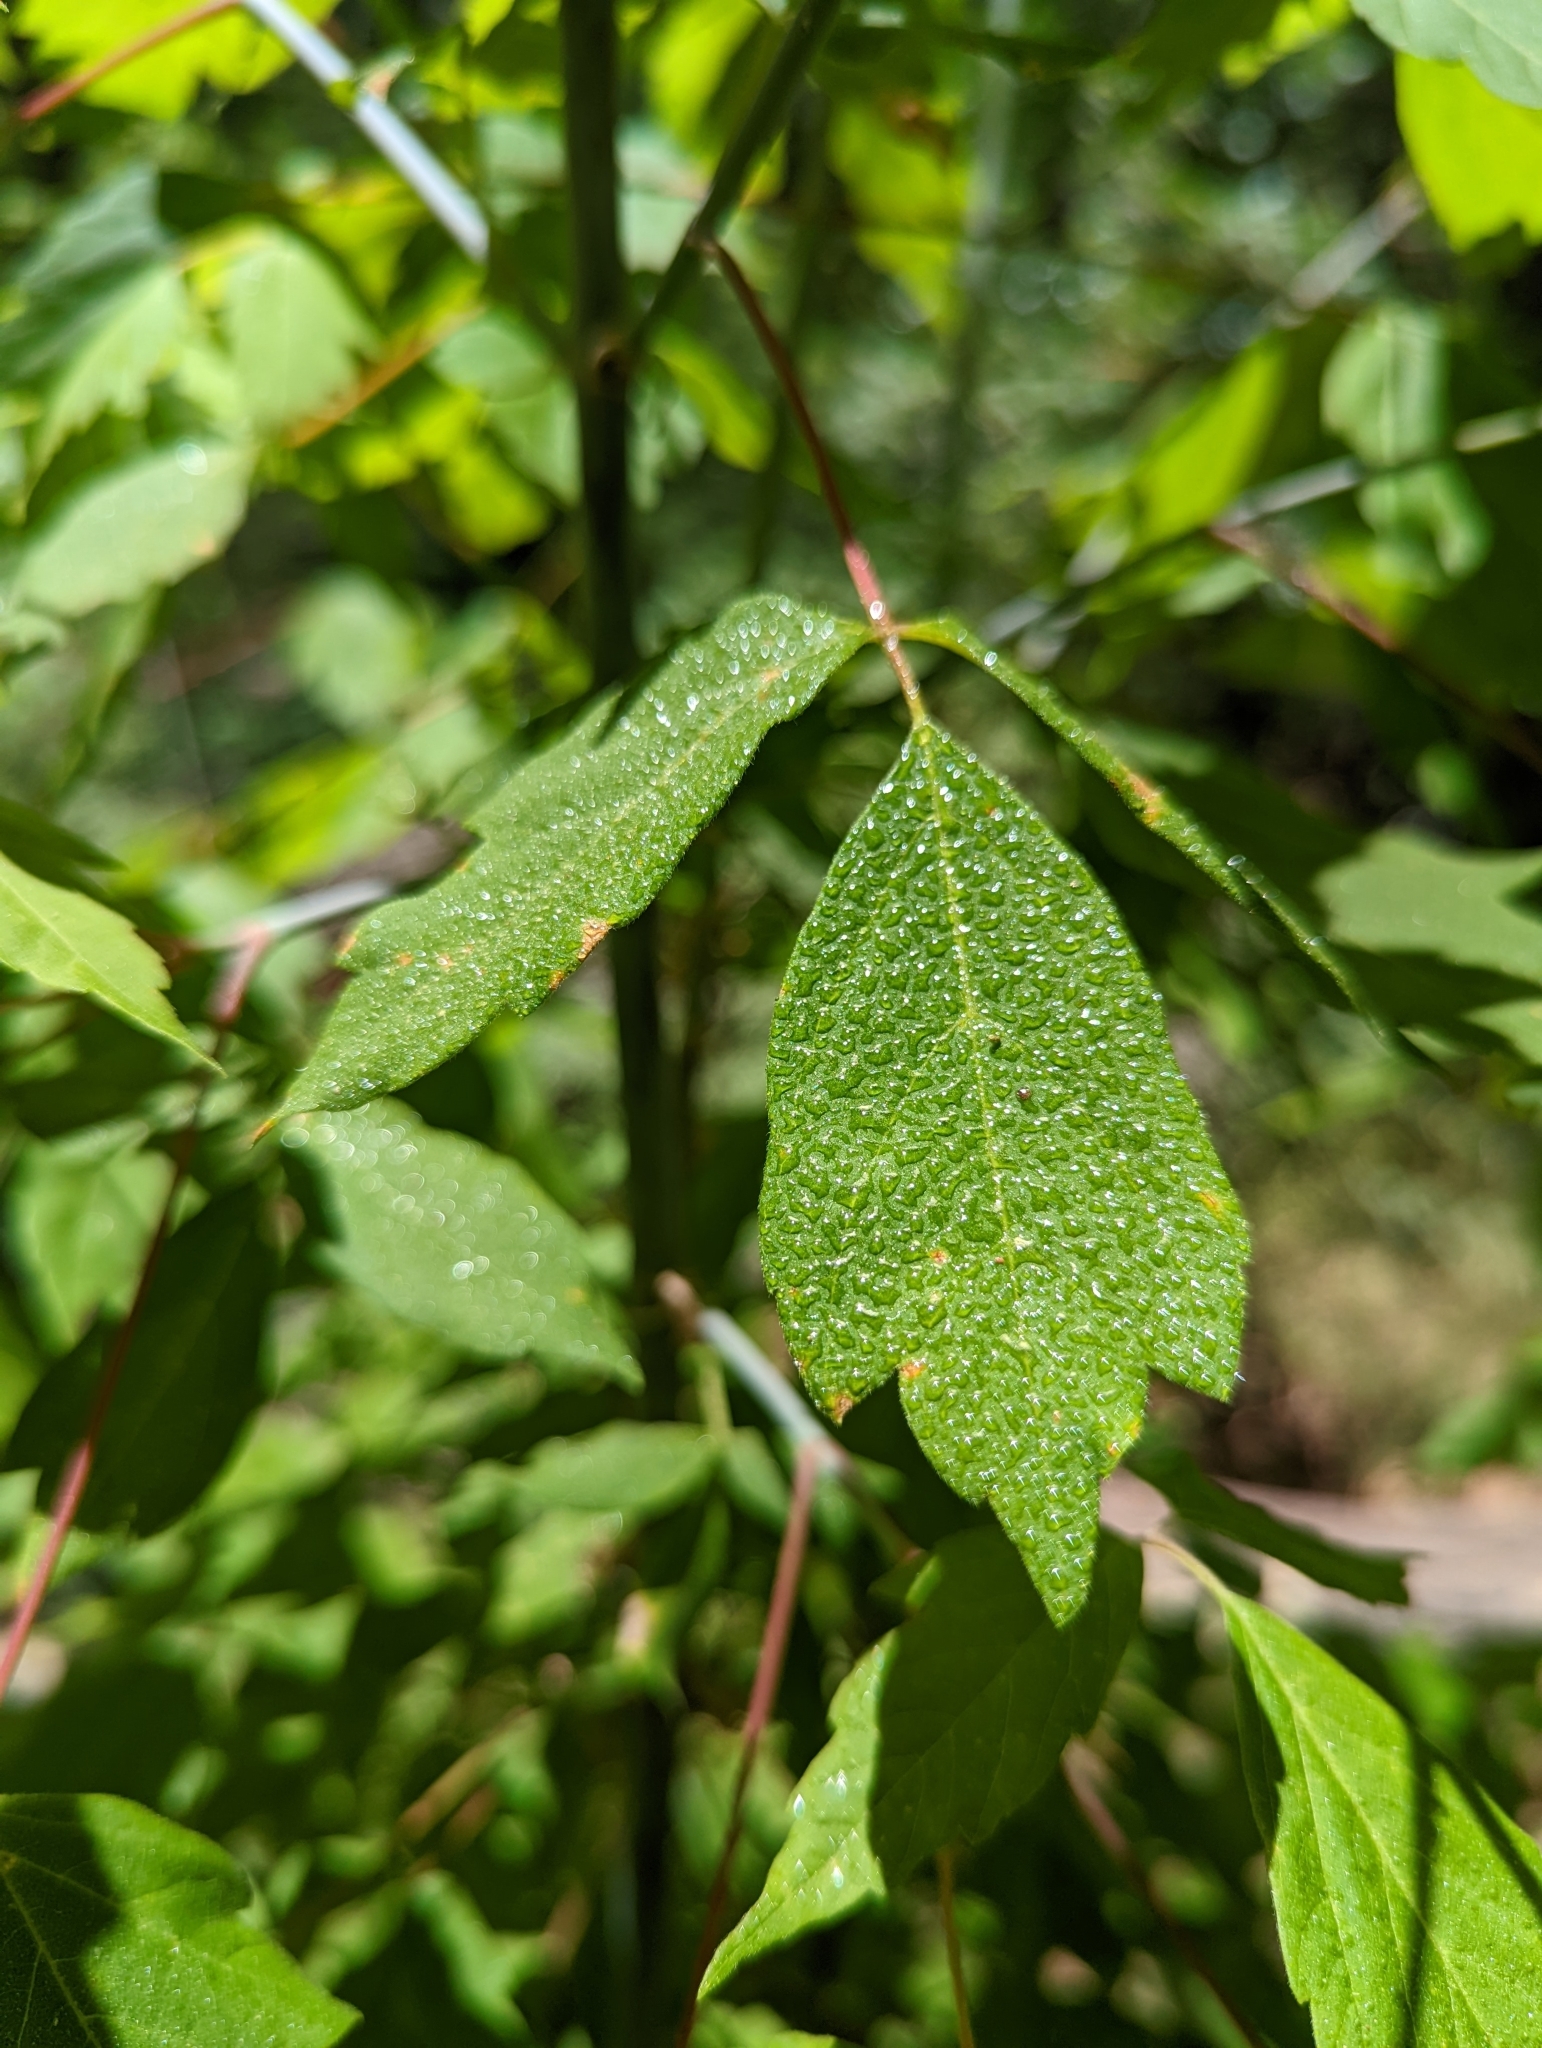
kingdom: Plantae
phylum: Tracheophyta
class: Magnoliopsida
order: Sapindales
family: Sapindaceae
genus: Acer
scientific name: Acer negundo
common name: Ashleaf maple
